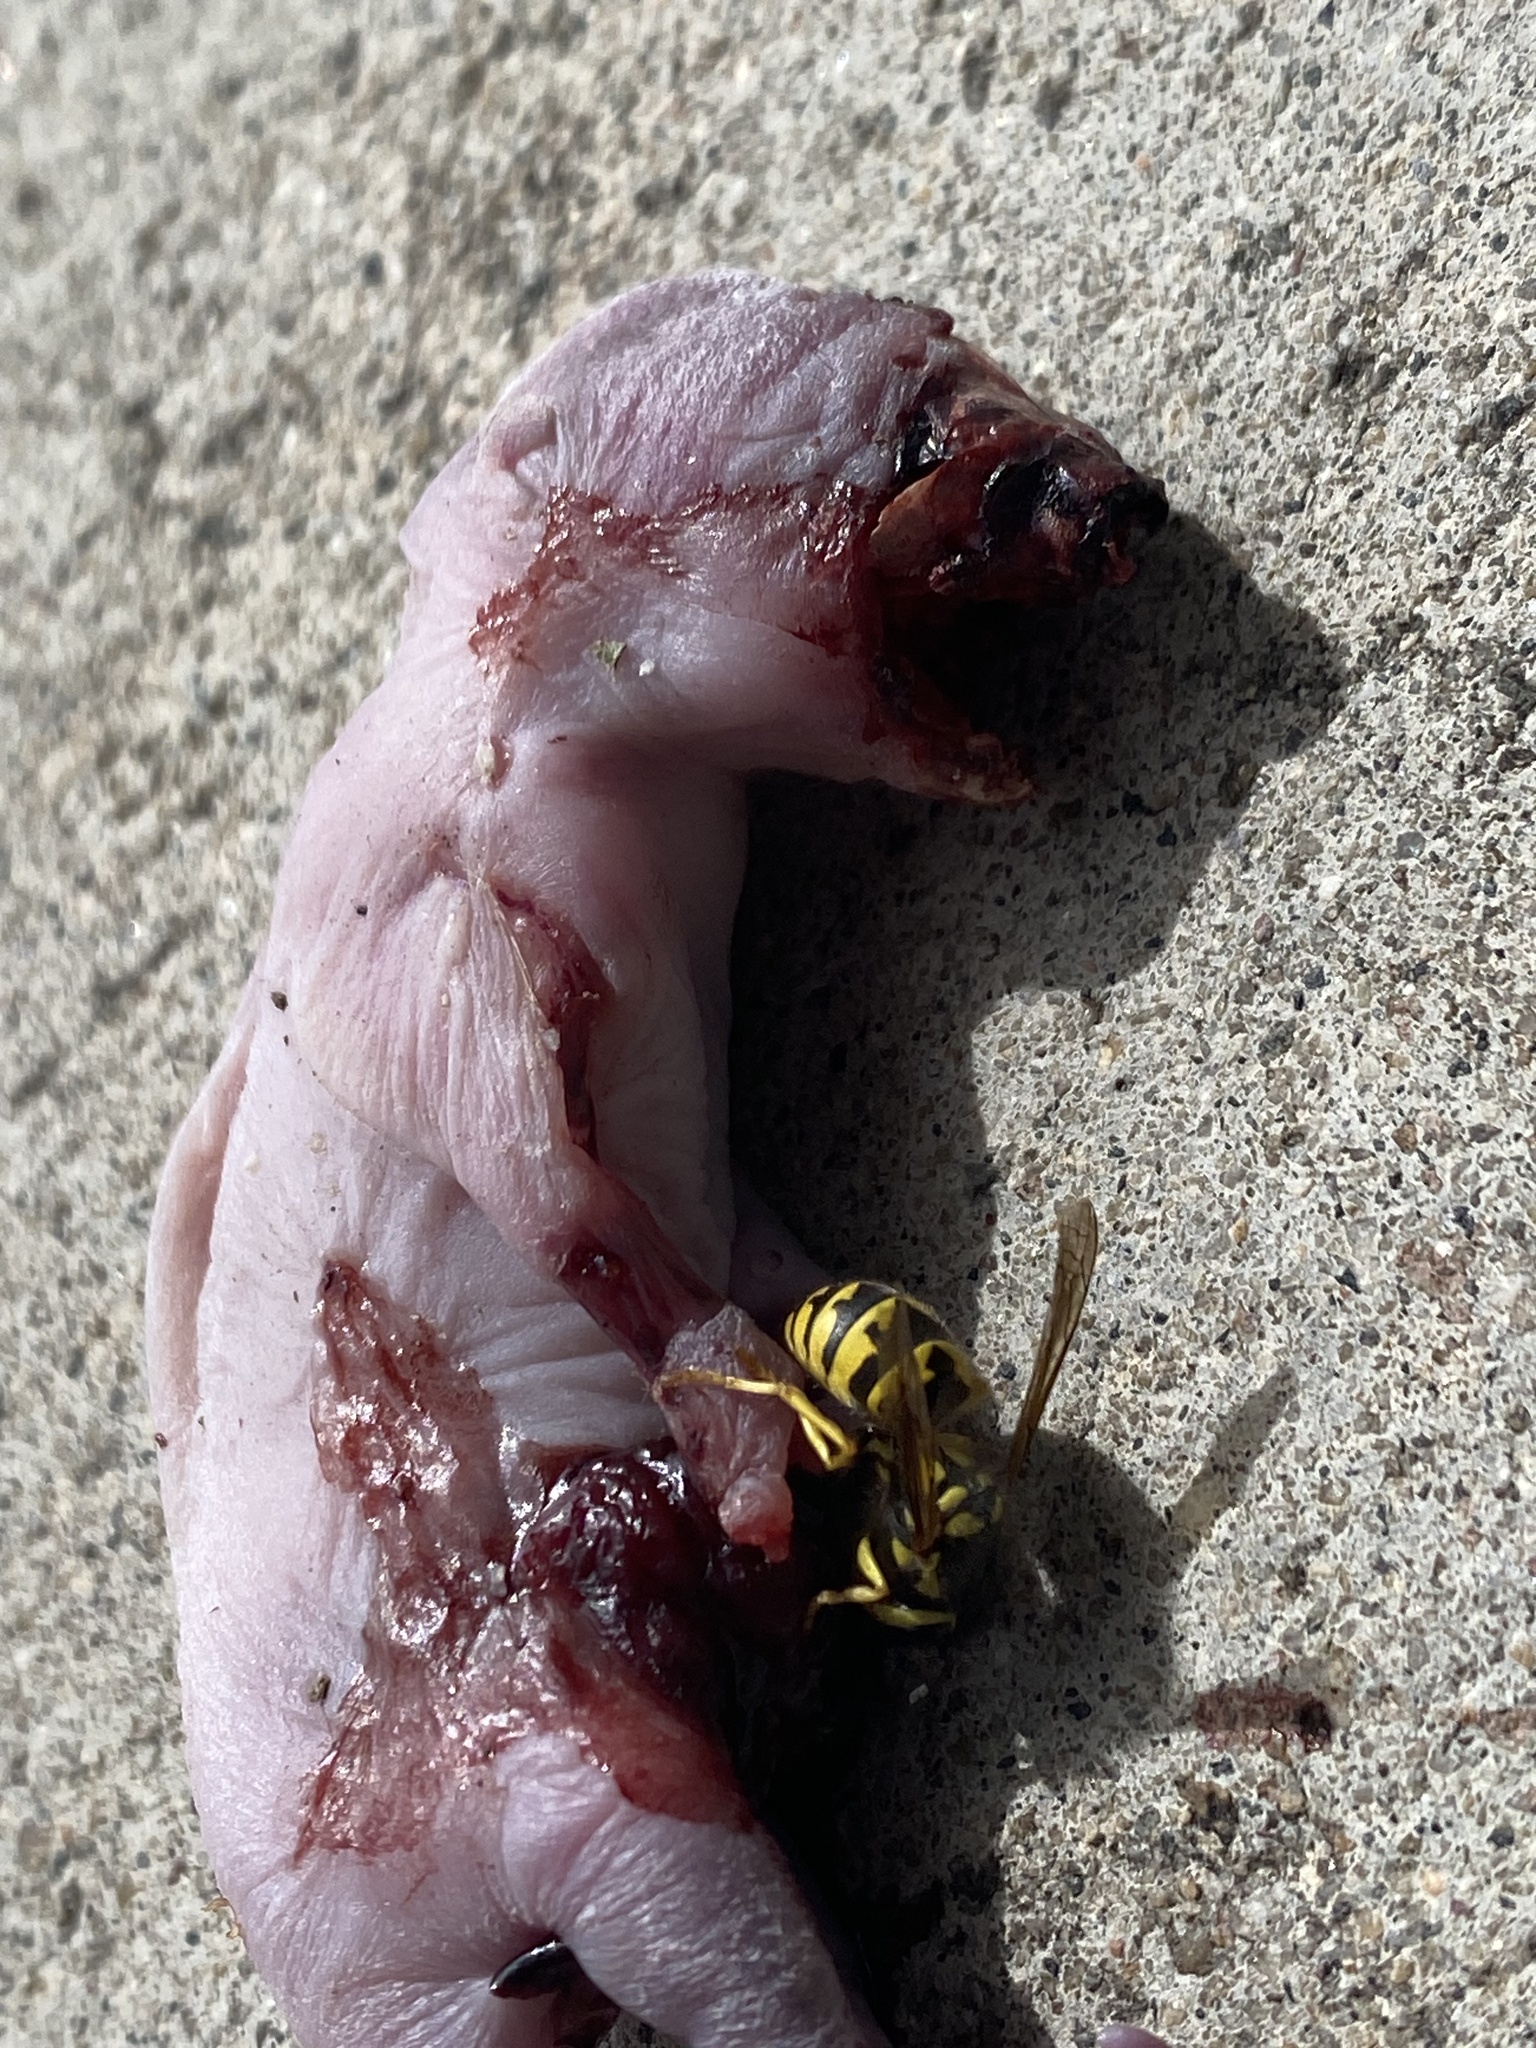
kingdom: Animalia
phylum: Arthropoda
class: Insecta
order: Hymenoptera
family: Vespidae
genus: Vespula
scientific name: Vespula pensylvanica
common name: Western yellowjacket
